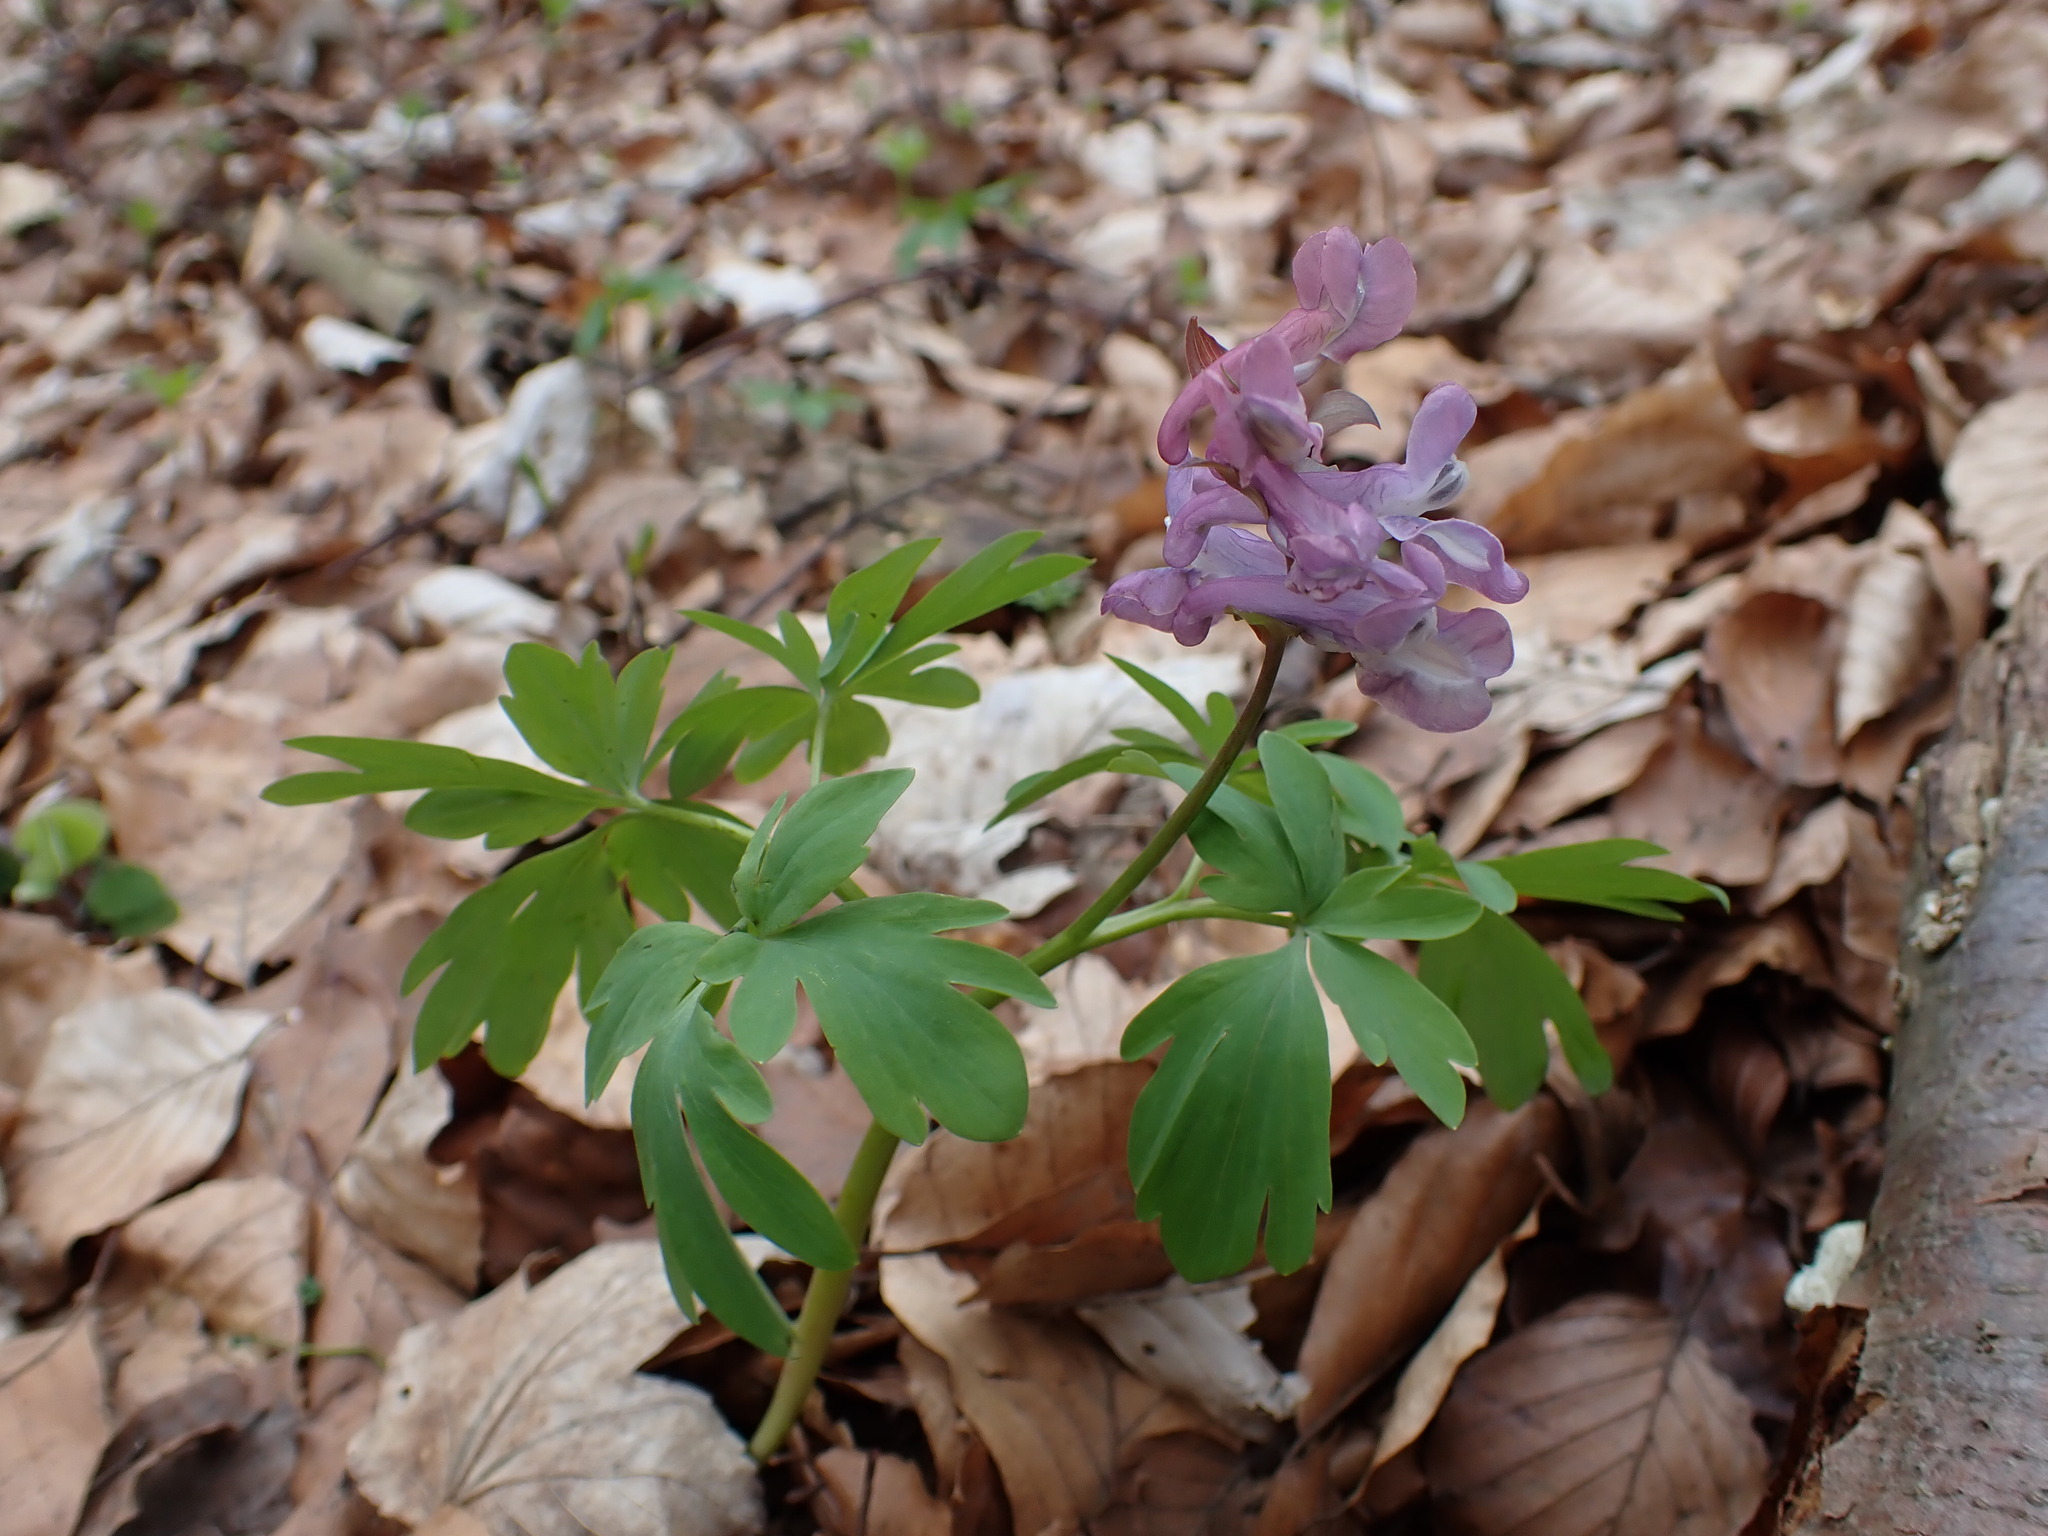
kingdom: Plantae
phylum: Tracheophyta
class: Magnoliopsida
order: Ranunculales
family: Papaveraceae
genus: Corydalis
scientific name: Corydalis cava
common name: Hollowroot
